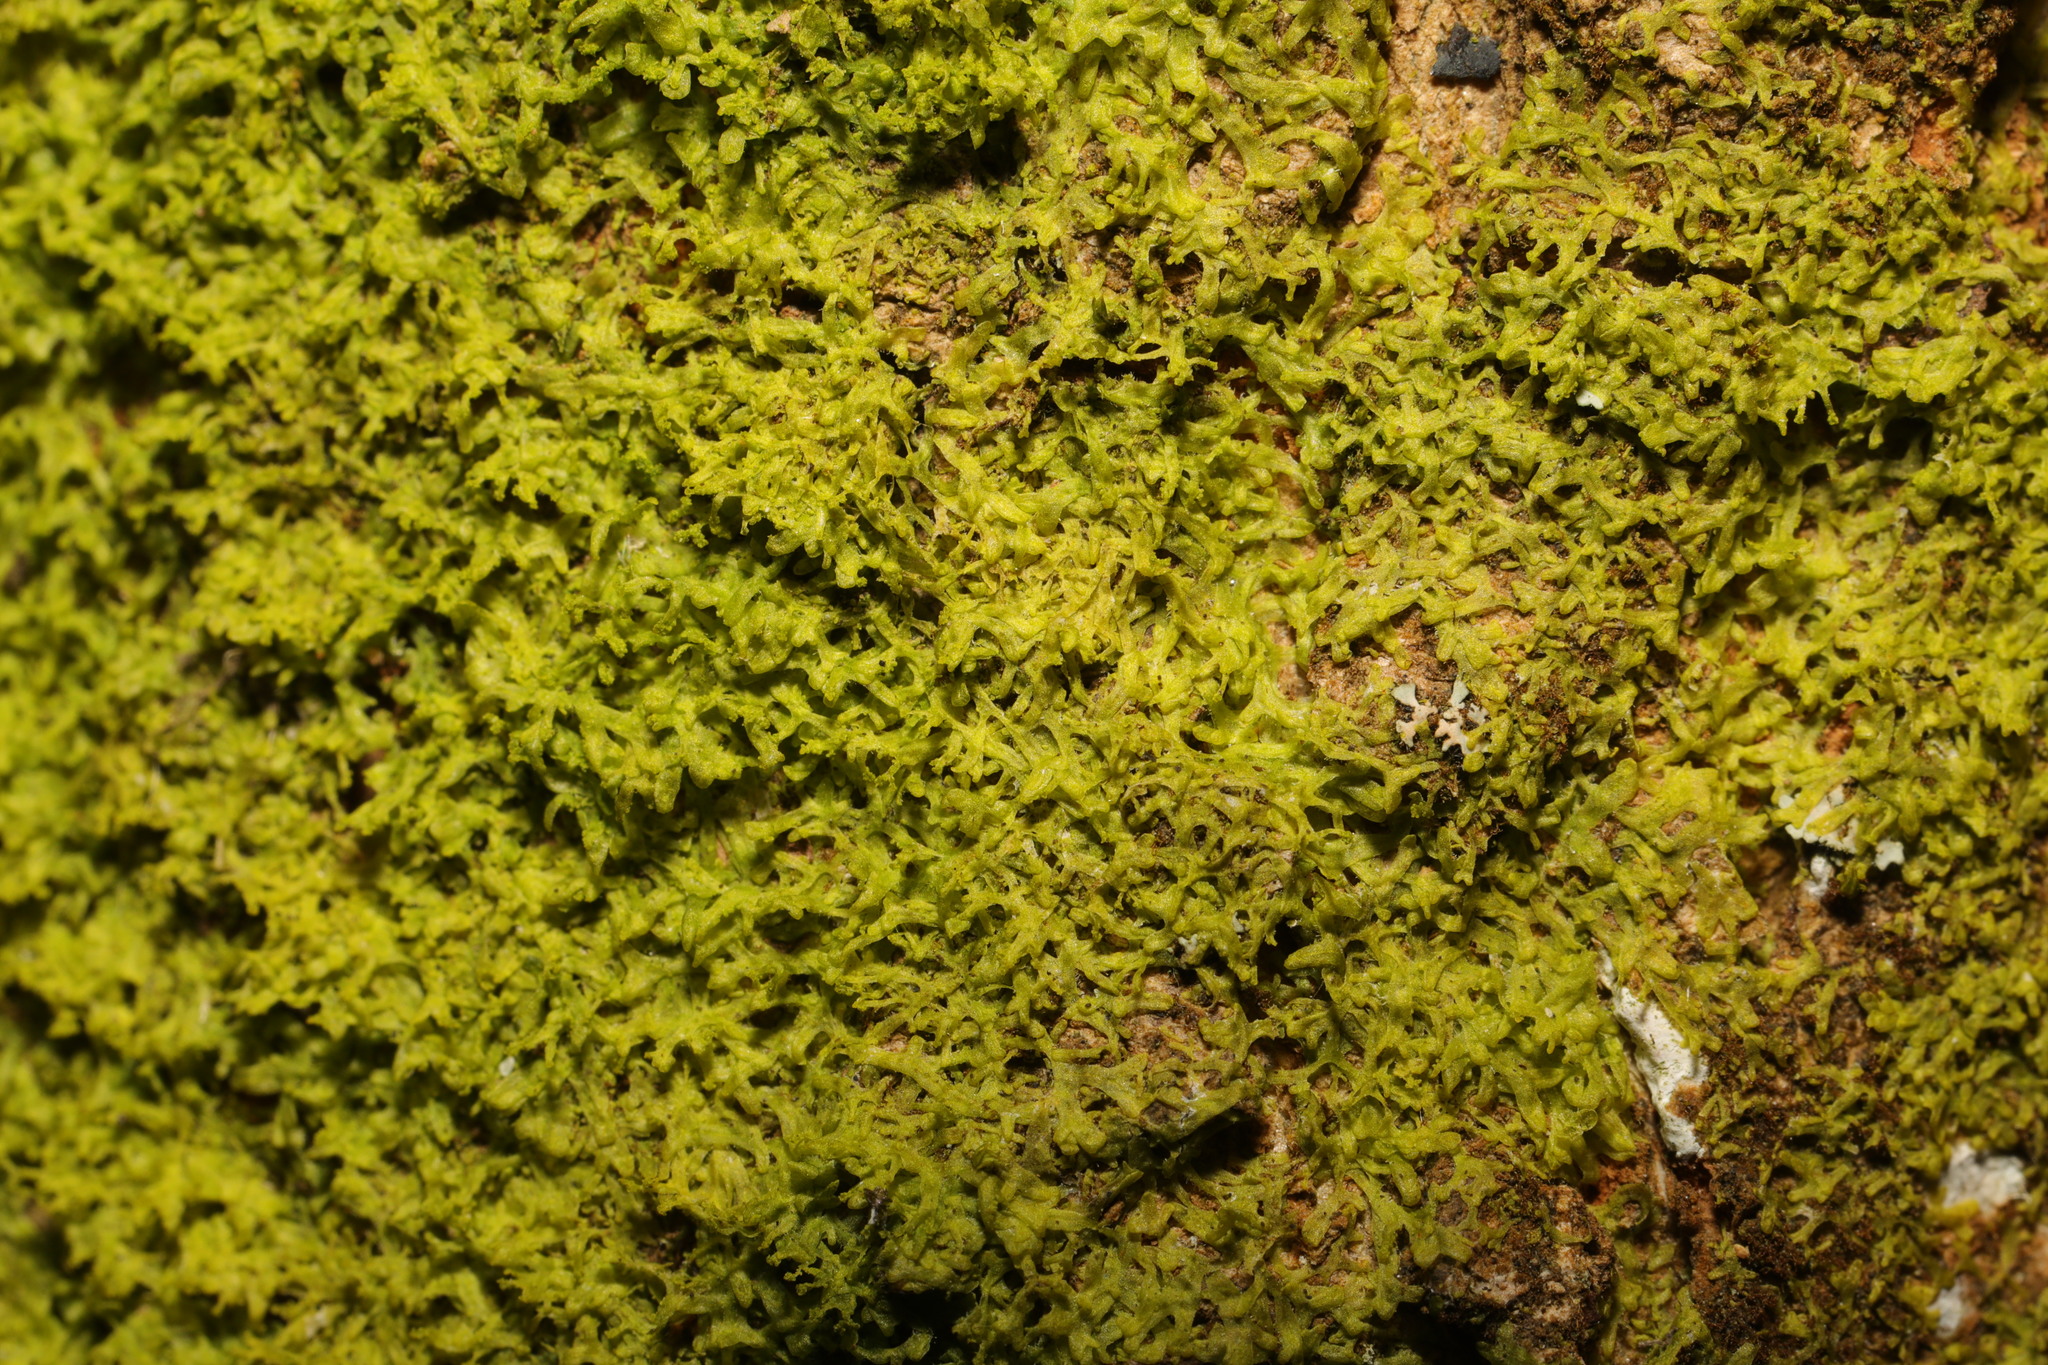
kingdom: Plantae
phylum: Marchantiophyta
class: Jungermanniopsida
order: Metzgeriales
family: Metzgeriaceae
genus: Metzgeria
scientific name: Metzgeria furcata
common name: Forked veilwort
